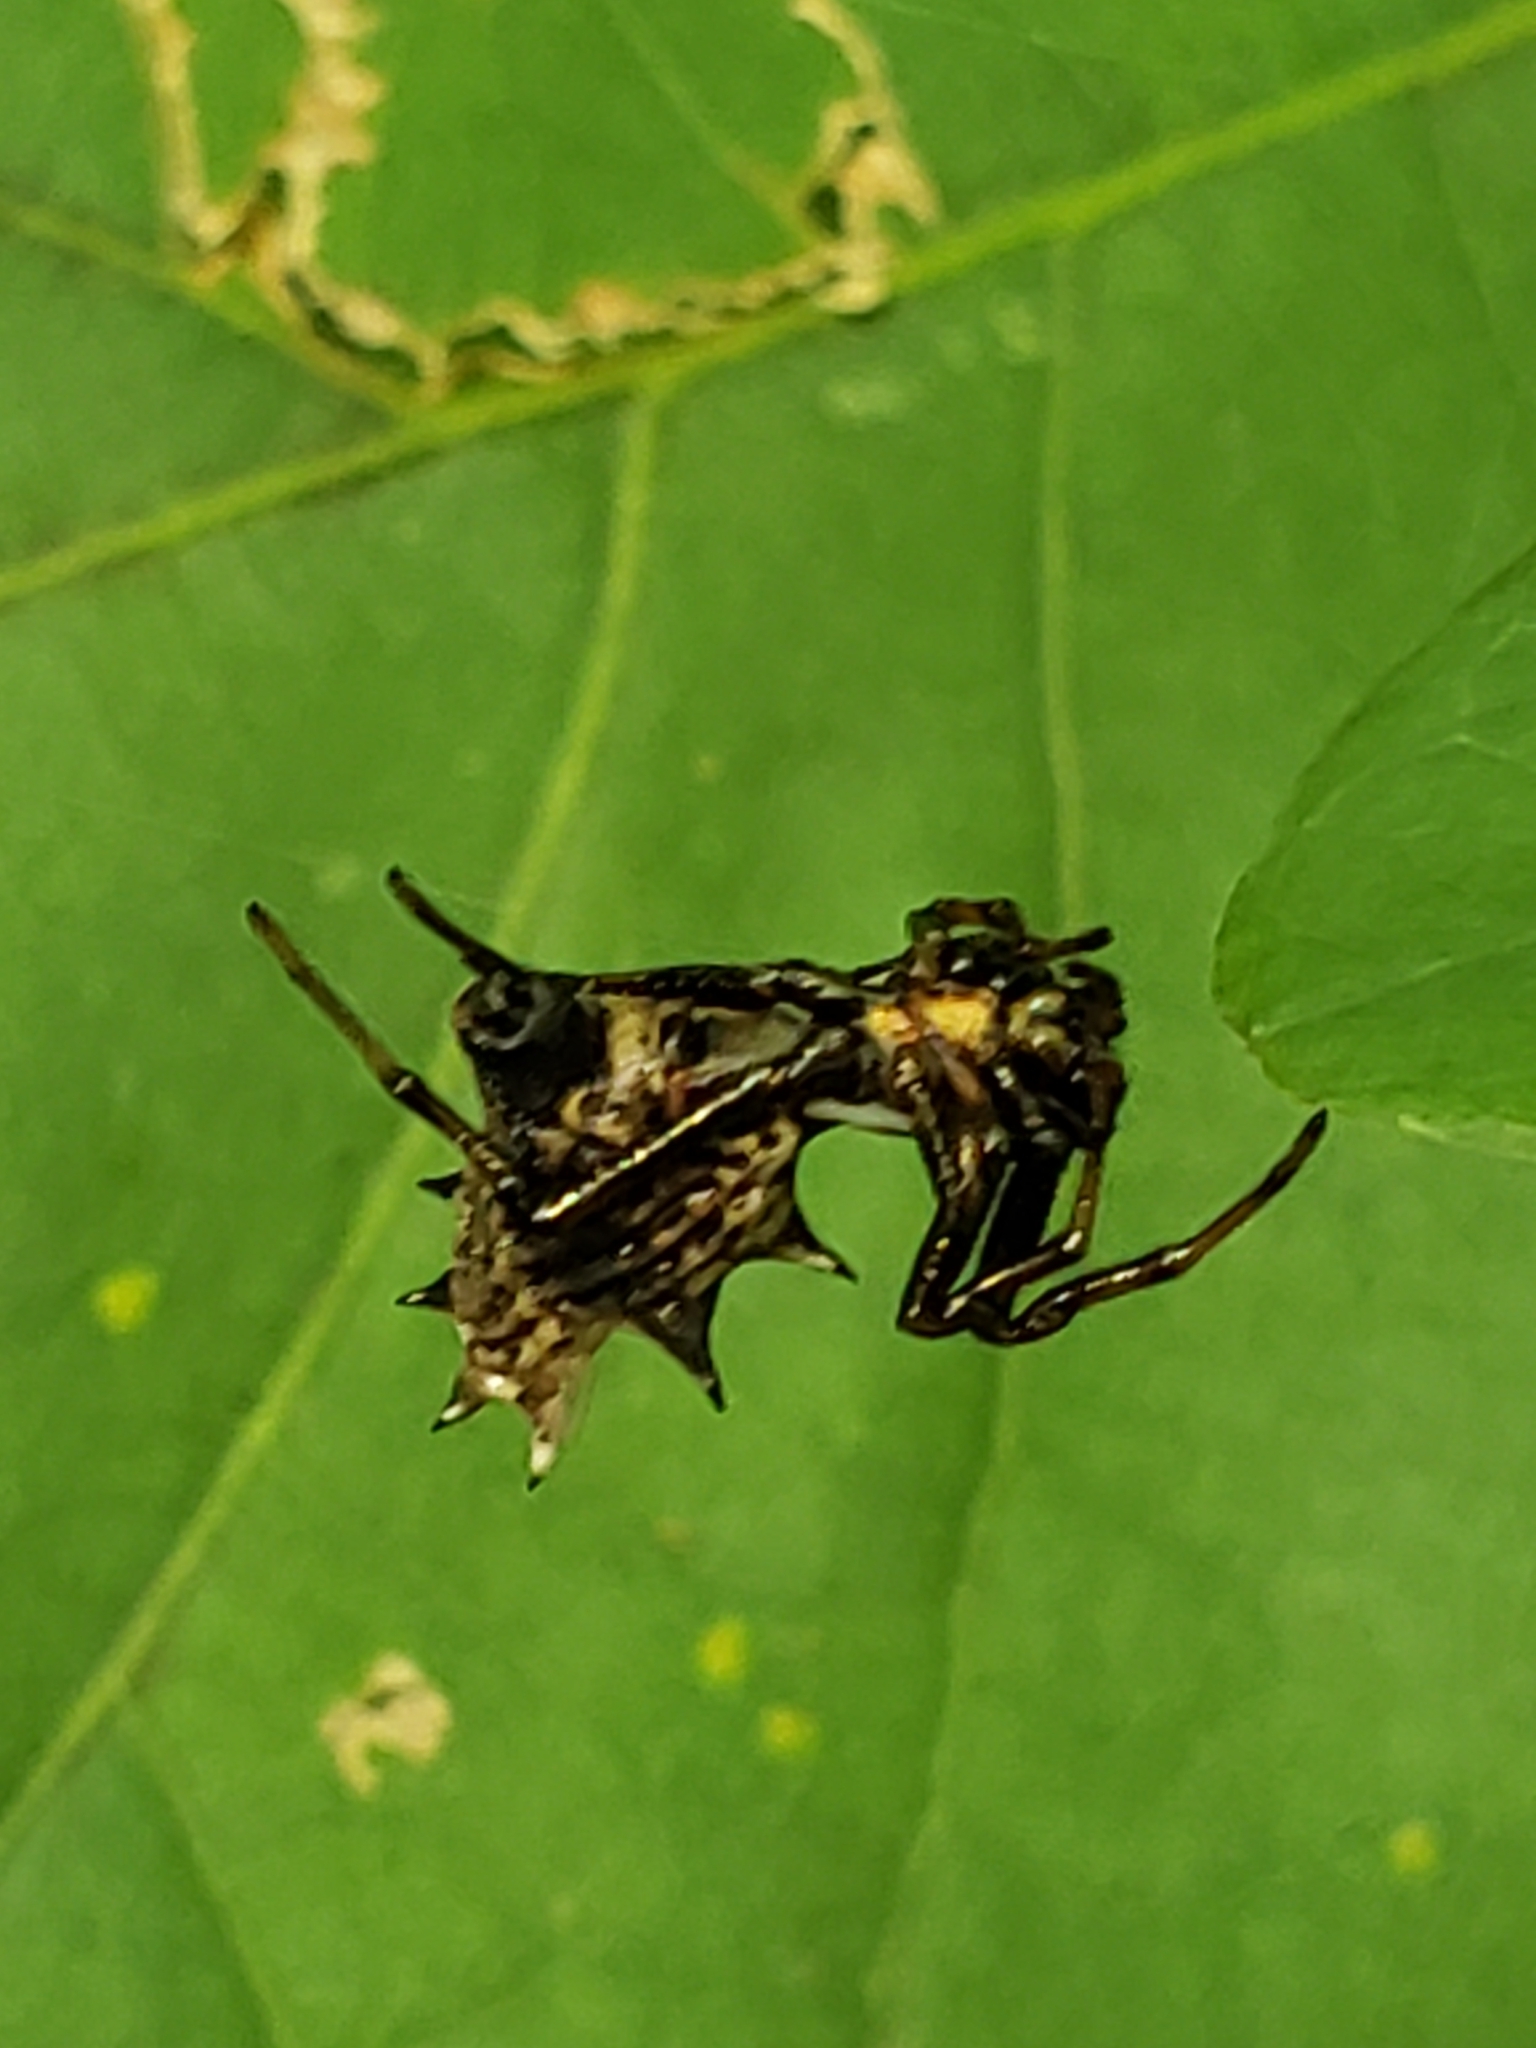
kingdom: Animalia
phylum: Arthropoda
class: Arachnida
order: Araneae
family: Araneidae
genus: Micrathena
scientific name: Micrathena gracilis
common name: Orb weavers
